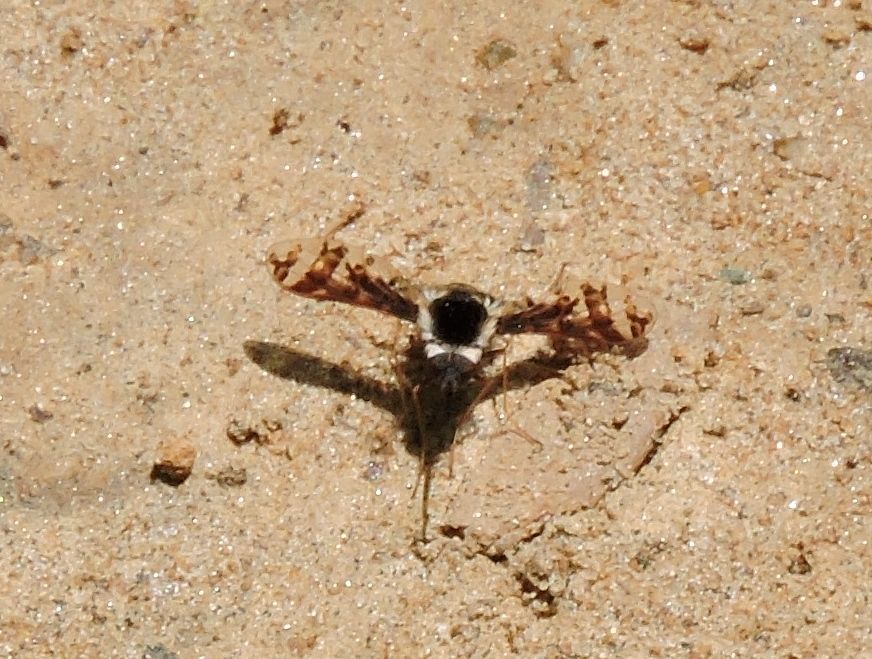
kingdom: Animalia
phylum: Arthropoda
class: Insecta
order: Diptera
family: Bombyliidae
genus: Bombylius
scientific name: Bombylius pulchellus
